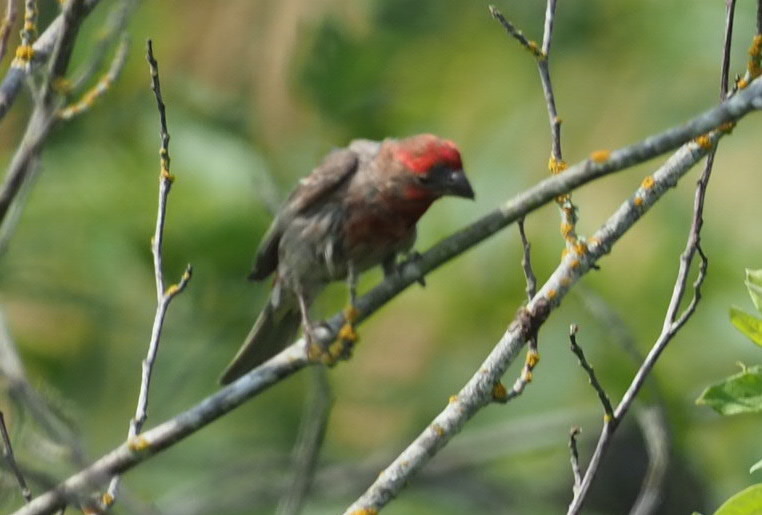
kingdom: Animalia
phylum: Chordata
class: Aves
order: Passeriformes
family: Fringillidae
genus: Haemorhous
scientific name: Haemorhous mexicanus
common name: House finch
